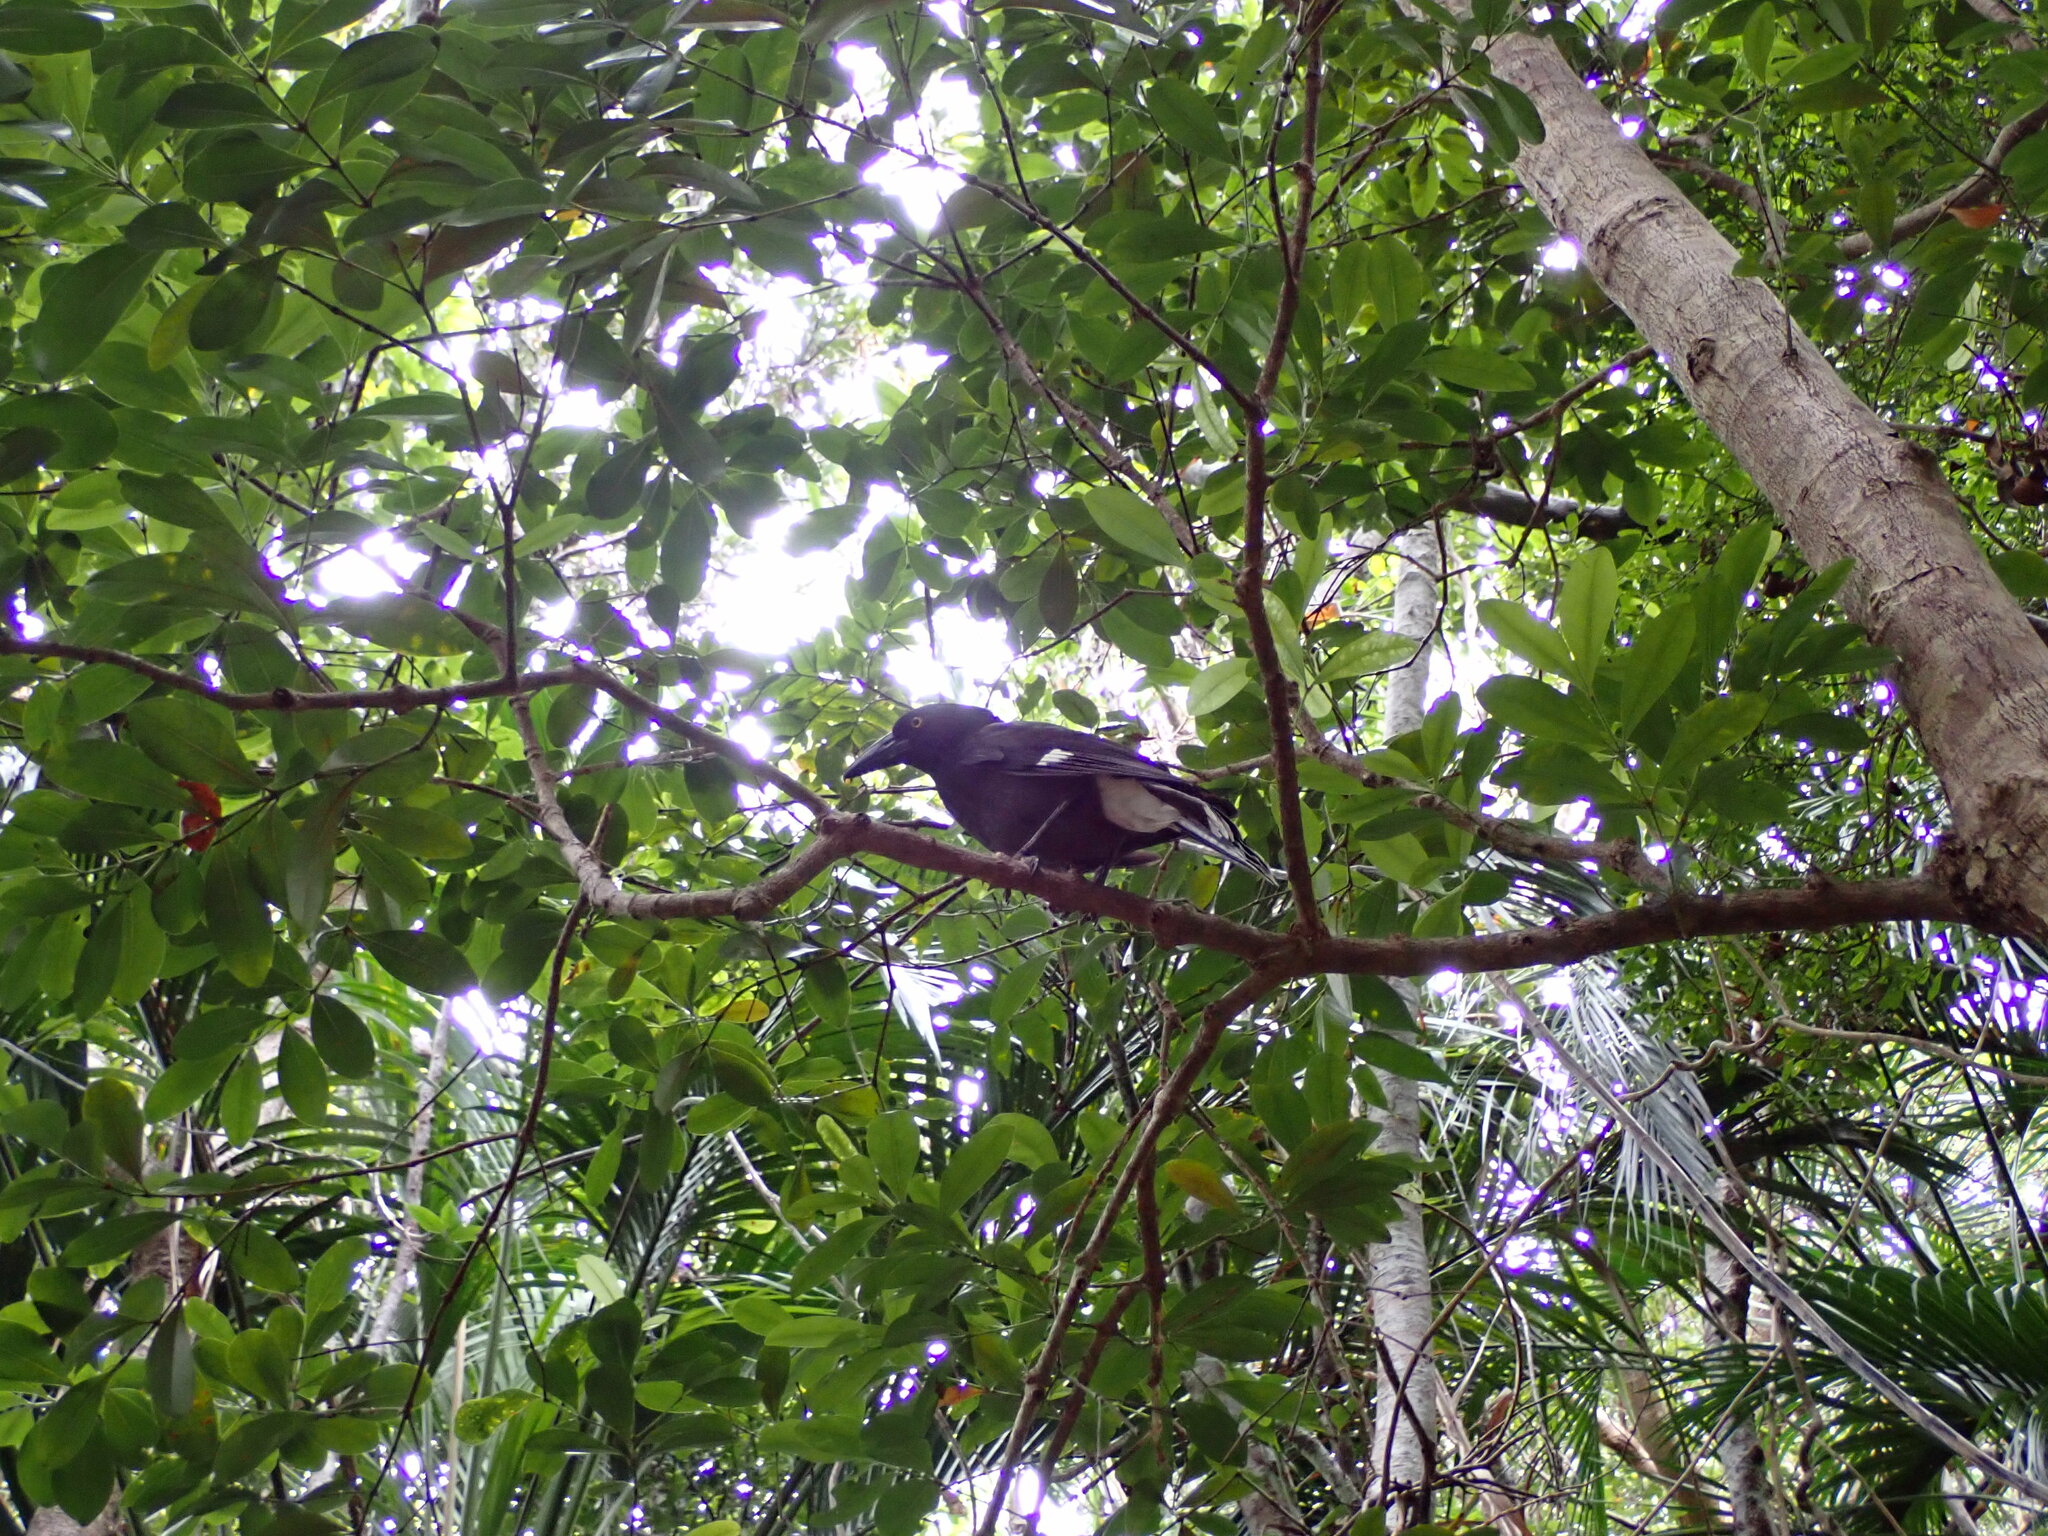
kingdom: Animalia
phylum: Chordata
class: Aves
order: Passeriformes
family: Cracticidae
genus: Strepera
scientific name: Strepera graculina
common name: Pied currawong
